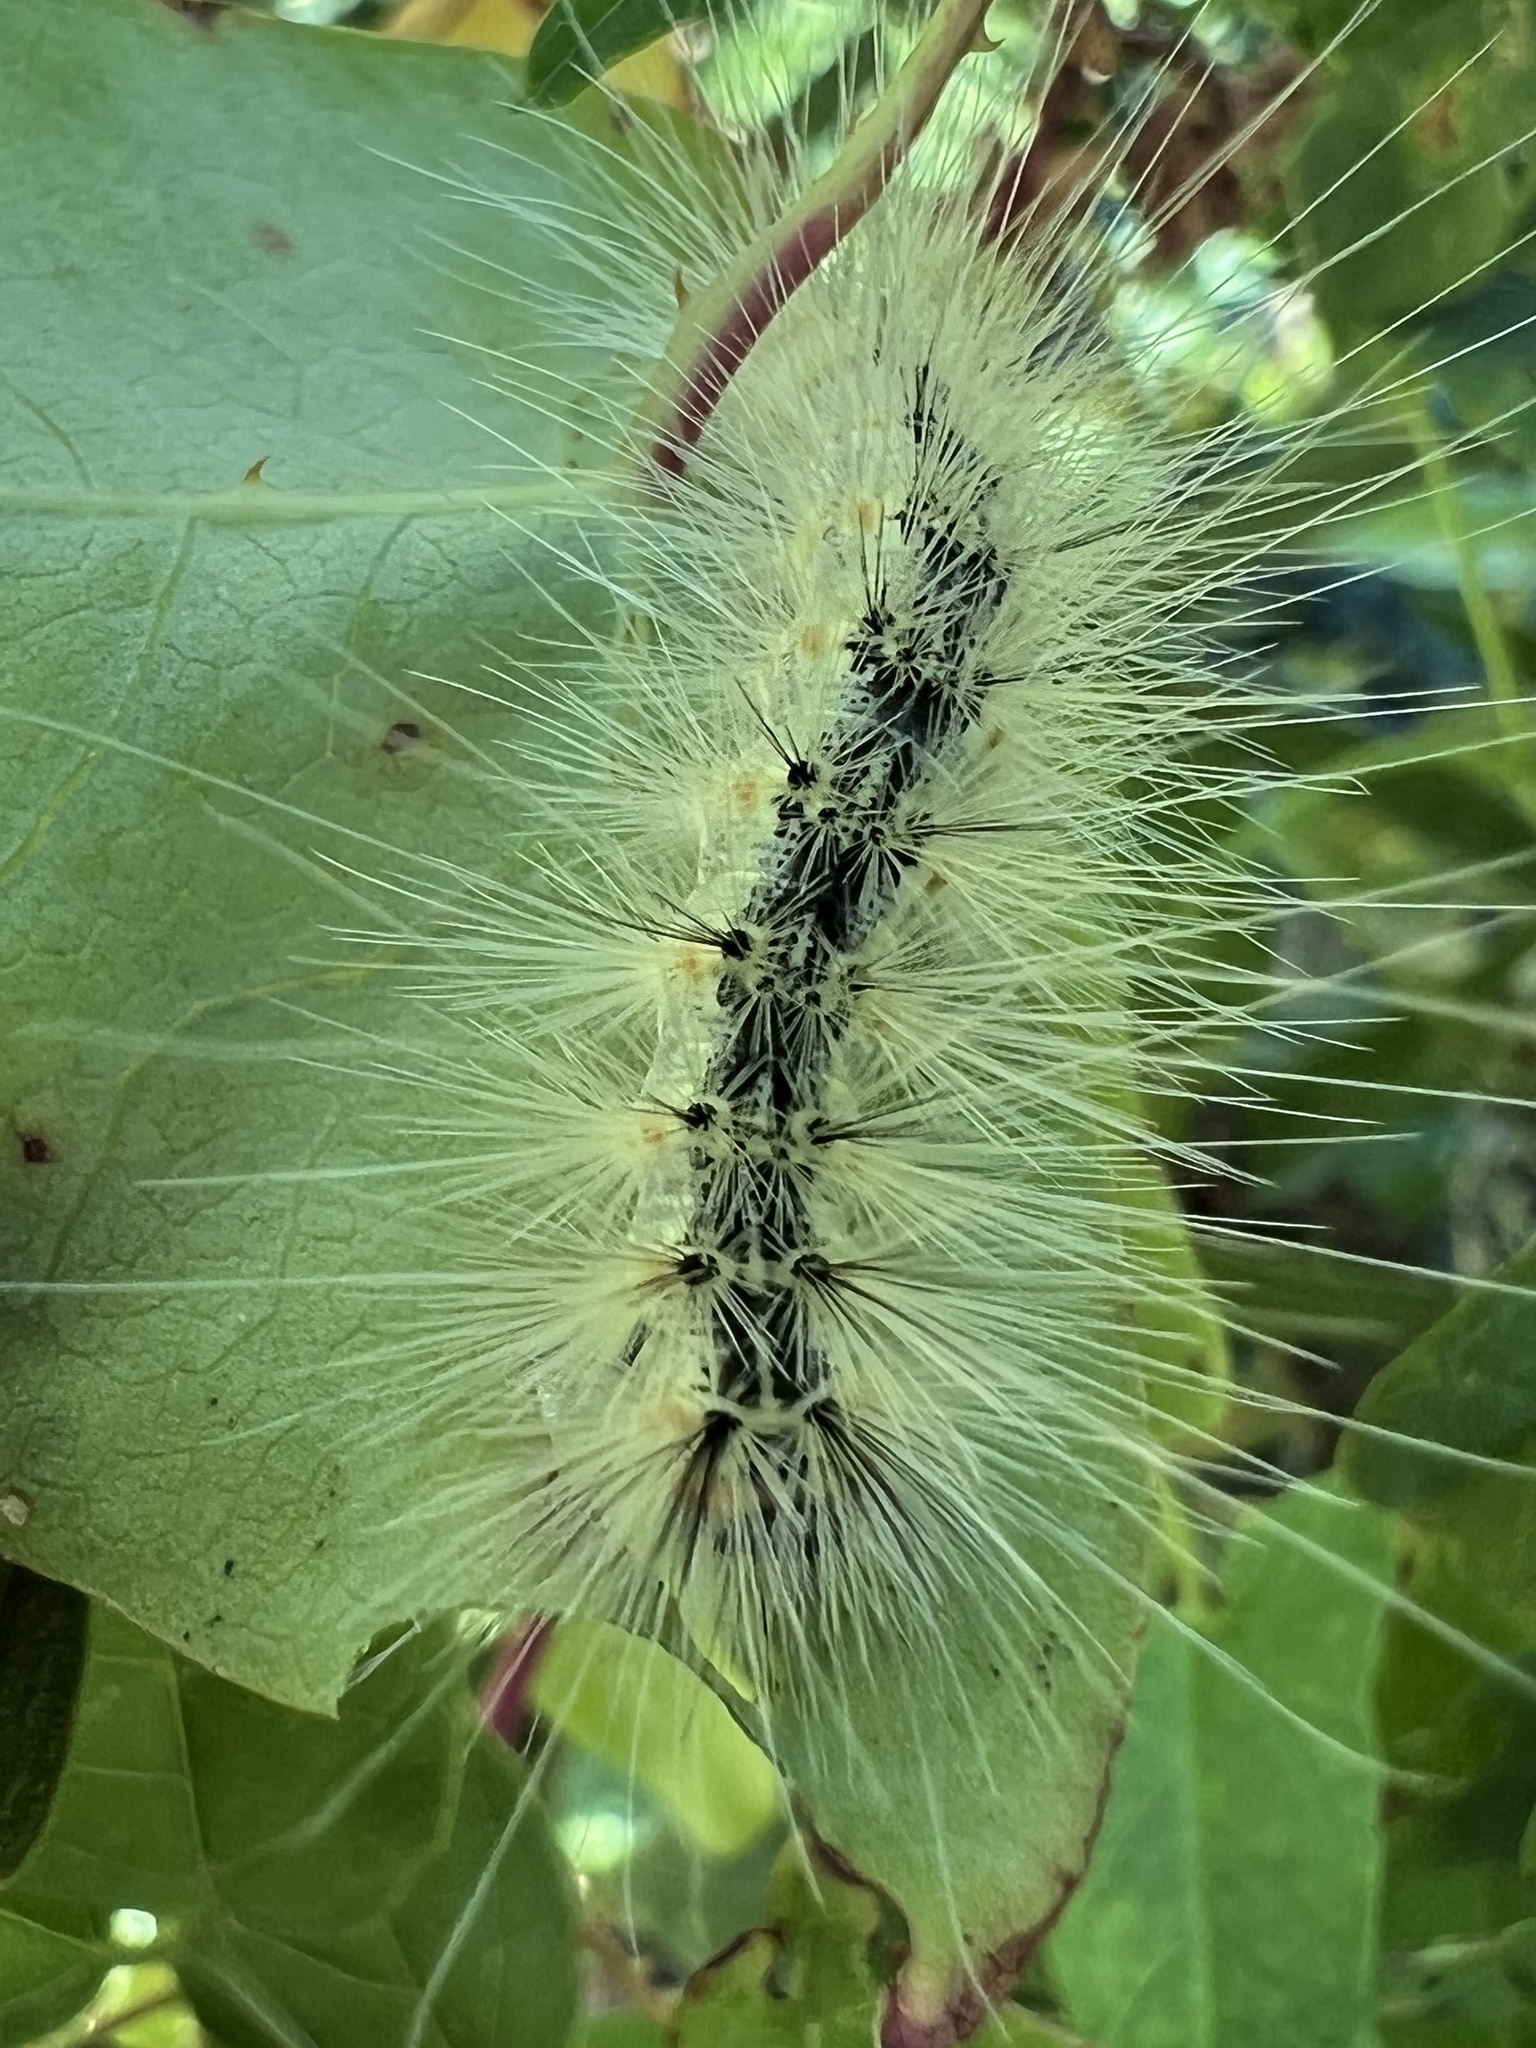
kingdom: Animalia
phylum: Arthropoda
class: Insecta
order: Lepidoptera
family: Erebidae
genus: Hyphantria
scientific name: Hyphantria cunea
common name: American white moth
